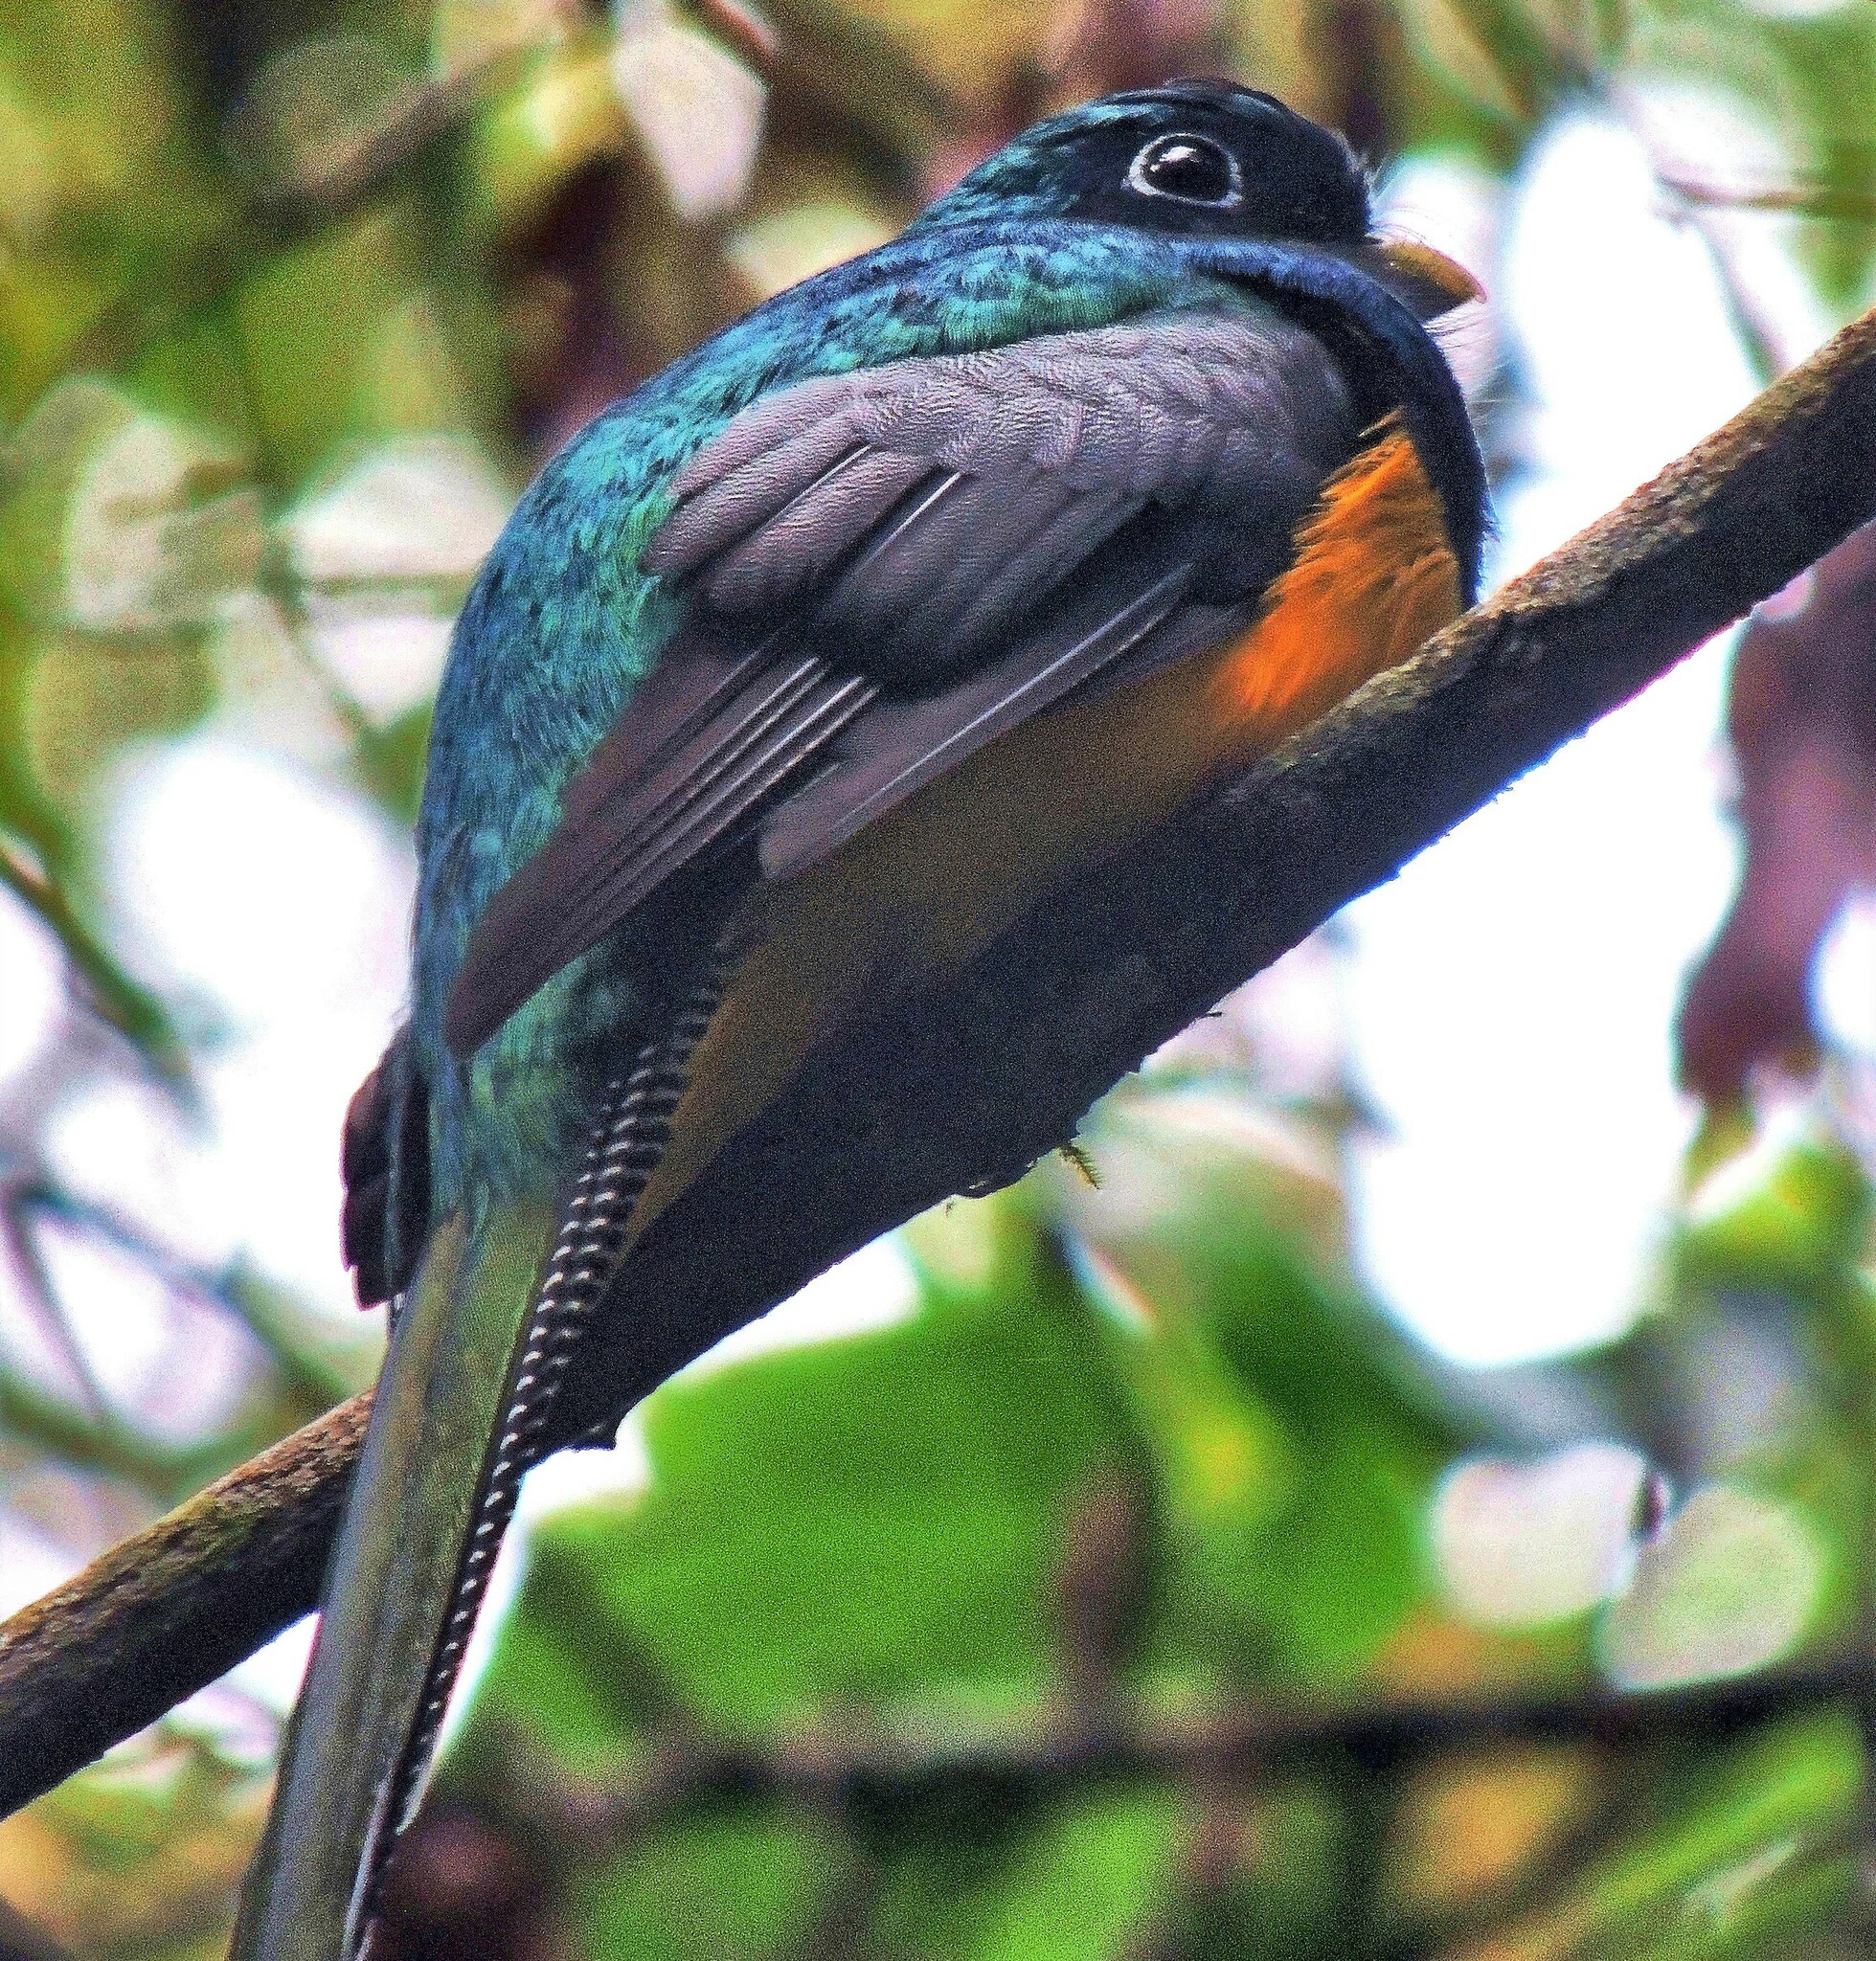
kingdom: Animalia
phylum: Chordata
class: Aves
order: Trogoniformes
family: Trogonidae
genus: Trogon
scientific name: Trogon rufus
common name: Black-throated trogon
